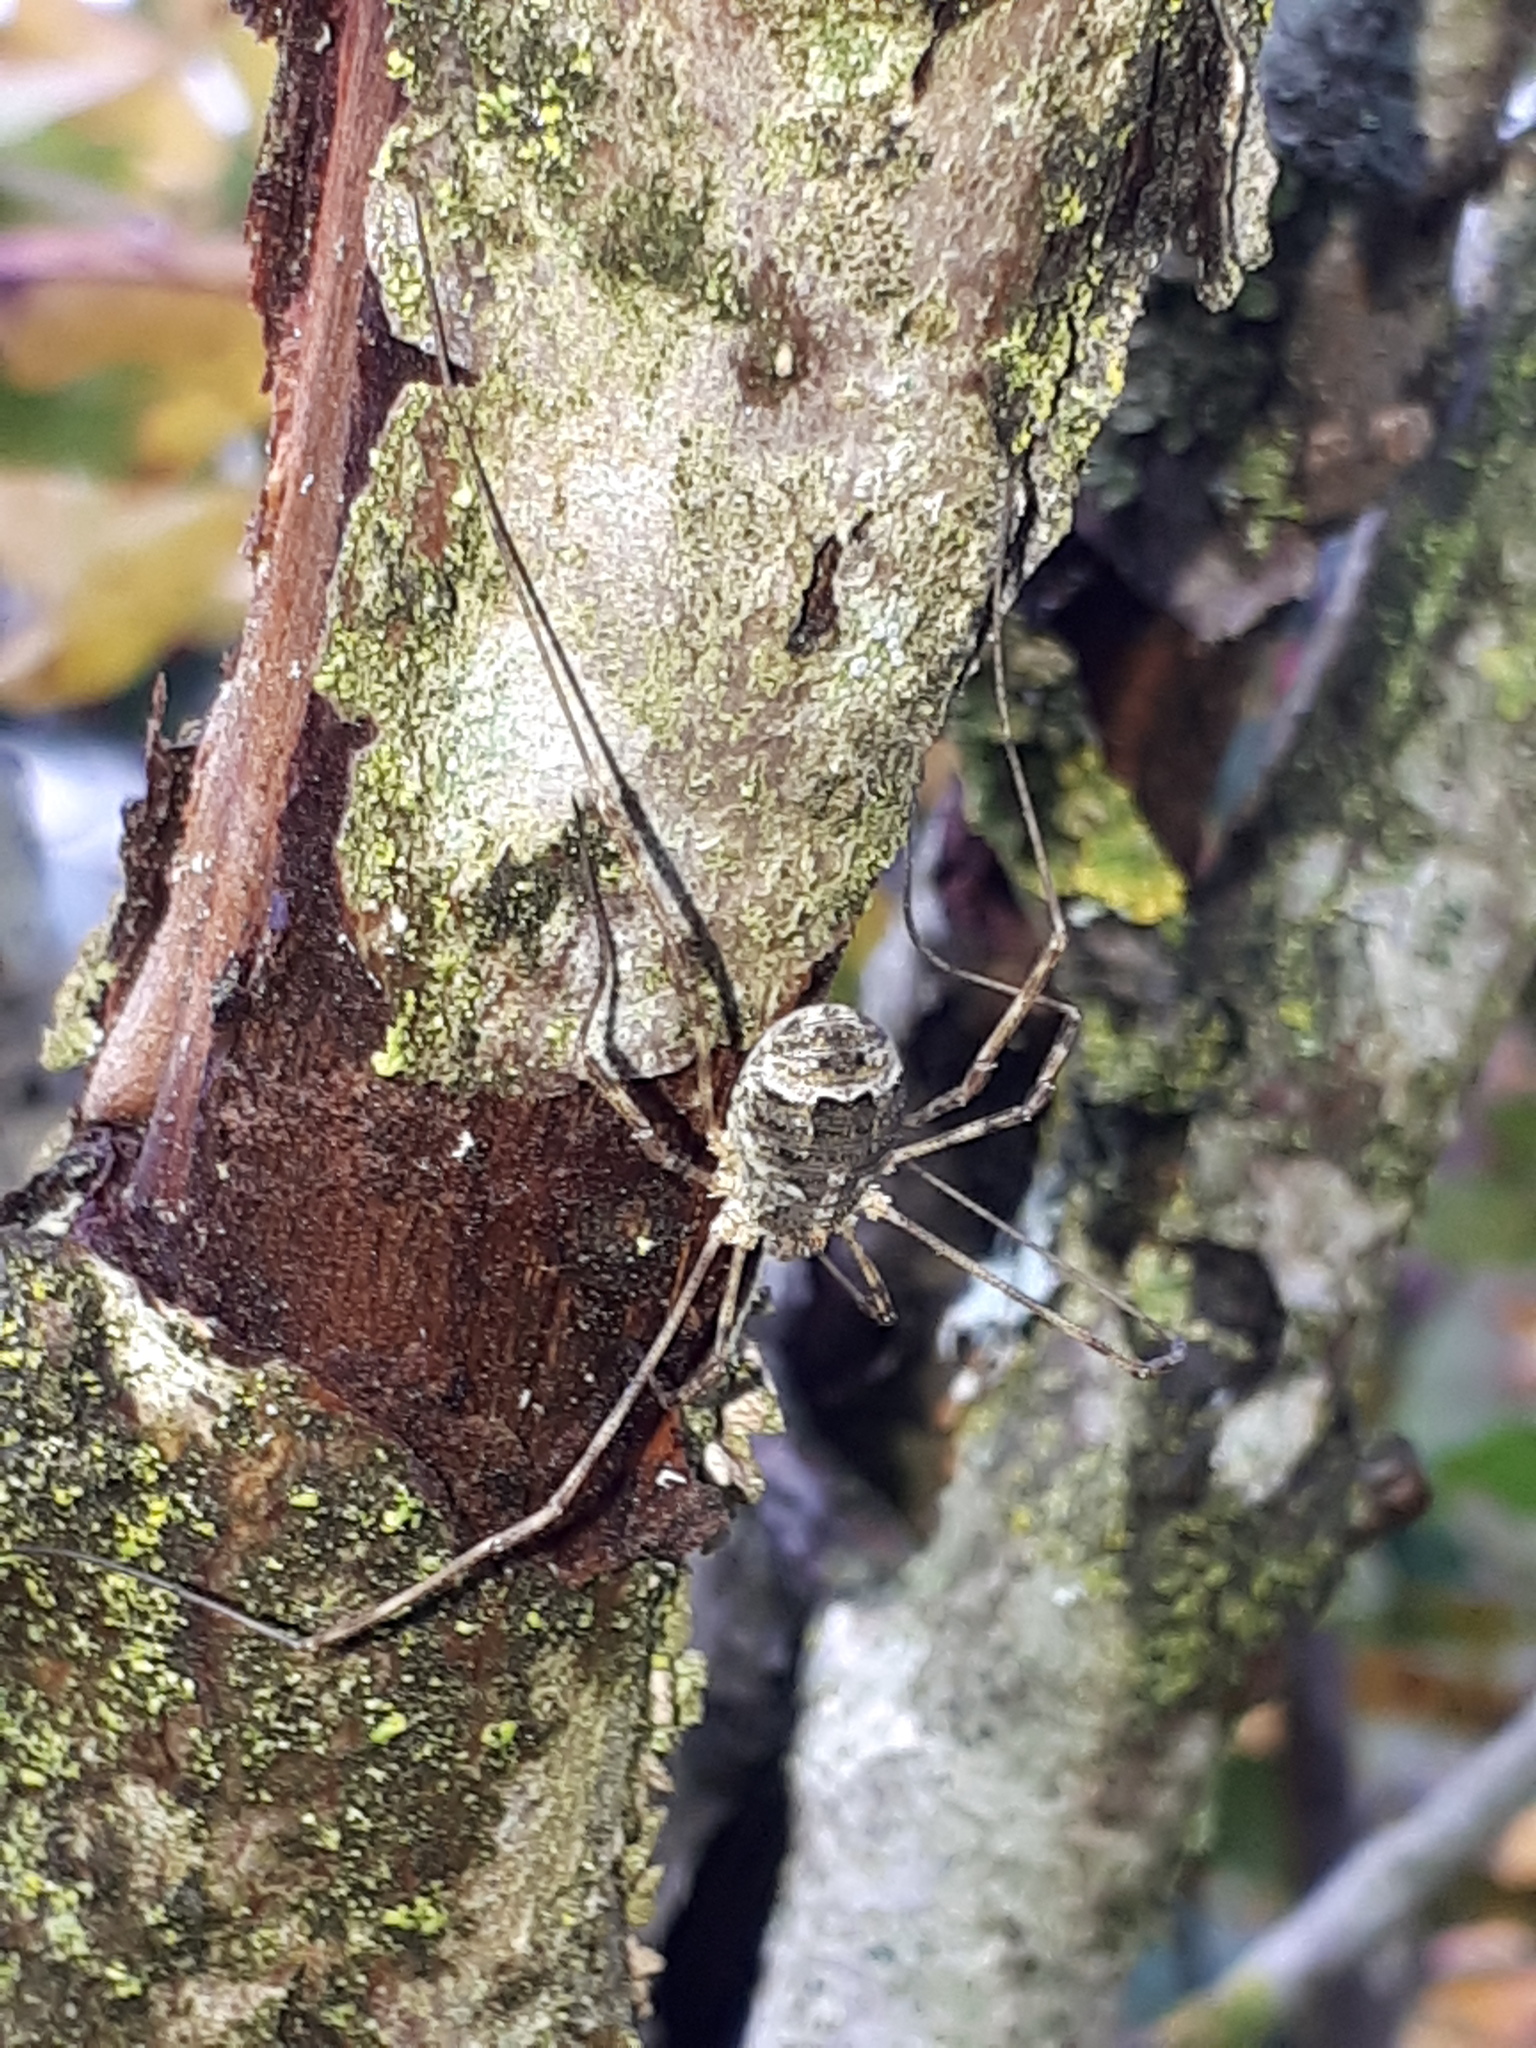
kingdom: Animalia
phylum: Arthropoda
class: Arachnida
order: Opiliones
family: Phalangiidae
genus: Lacinius
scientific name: Lacinius dentiger
